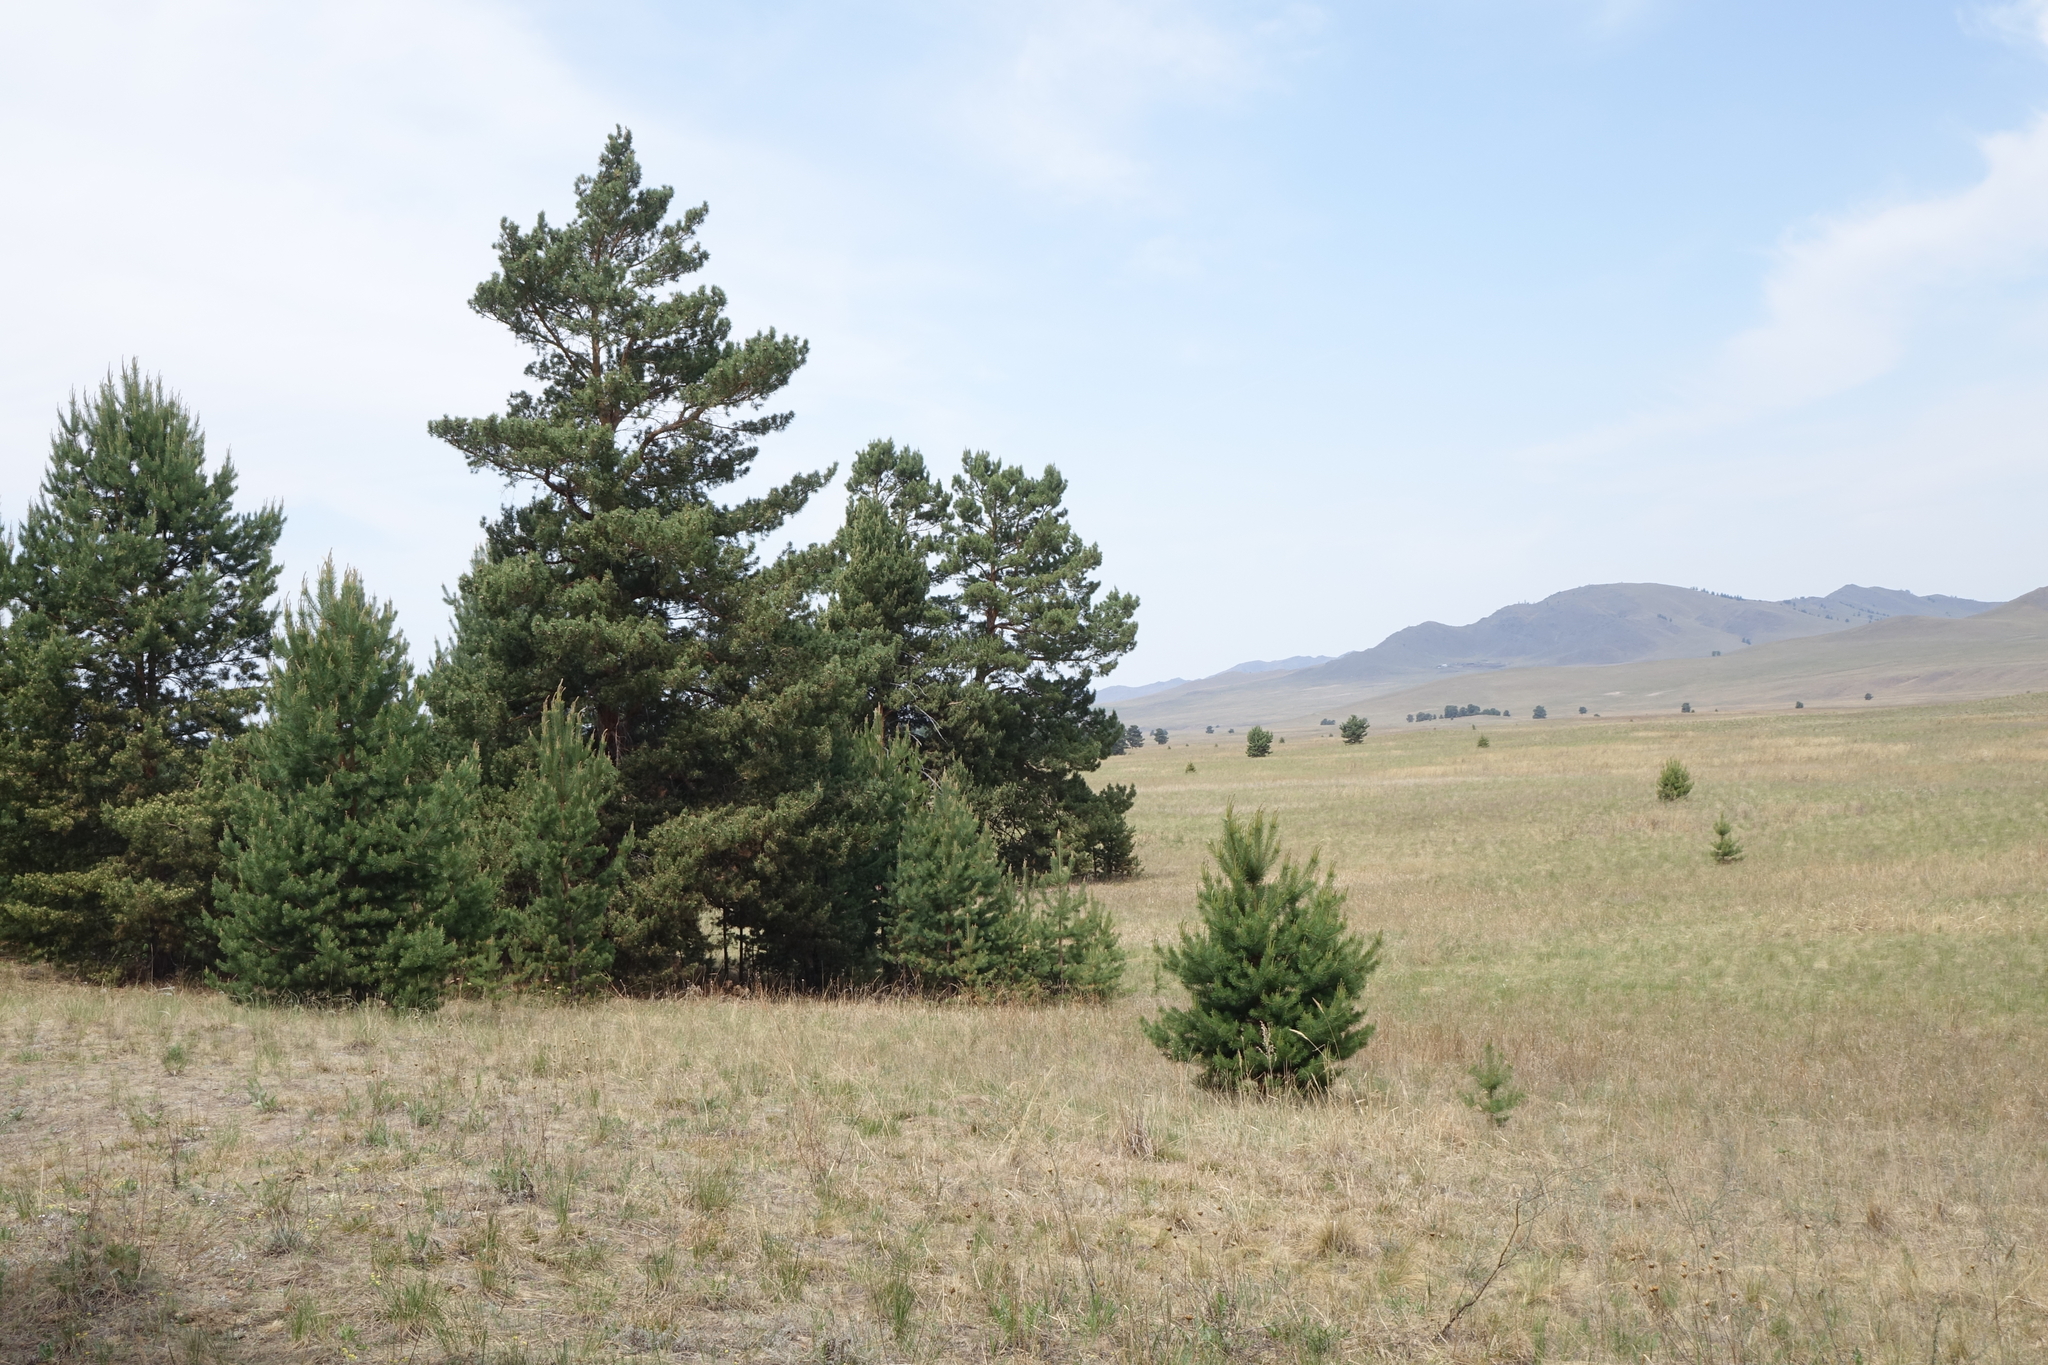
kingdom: Plantae
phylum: Tracheophyta
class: Pinopsida
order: Pinales
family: Pinaceae
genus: Pinus
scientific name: Pinus sylvestris
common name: Scots pine
